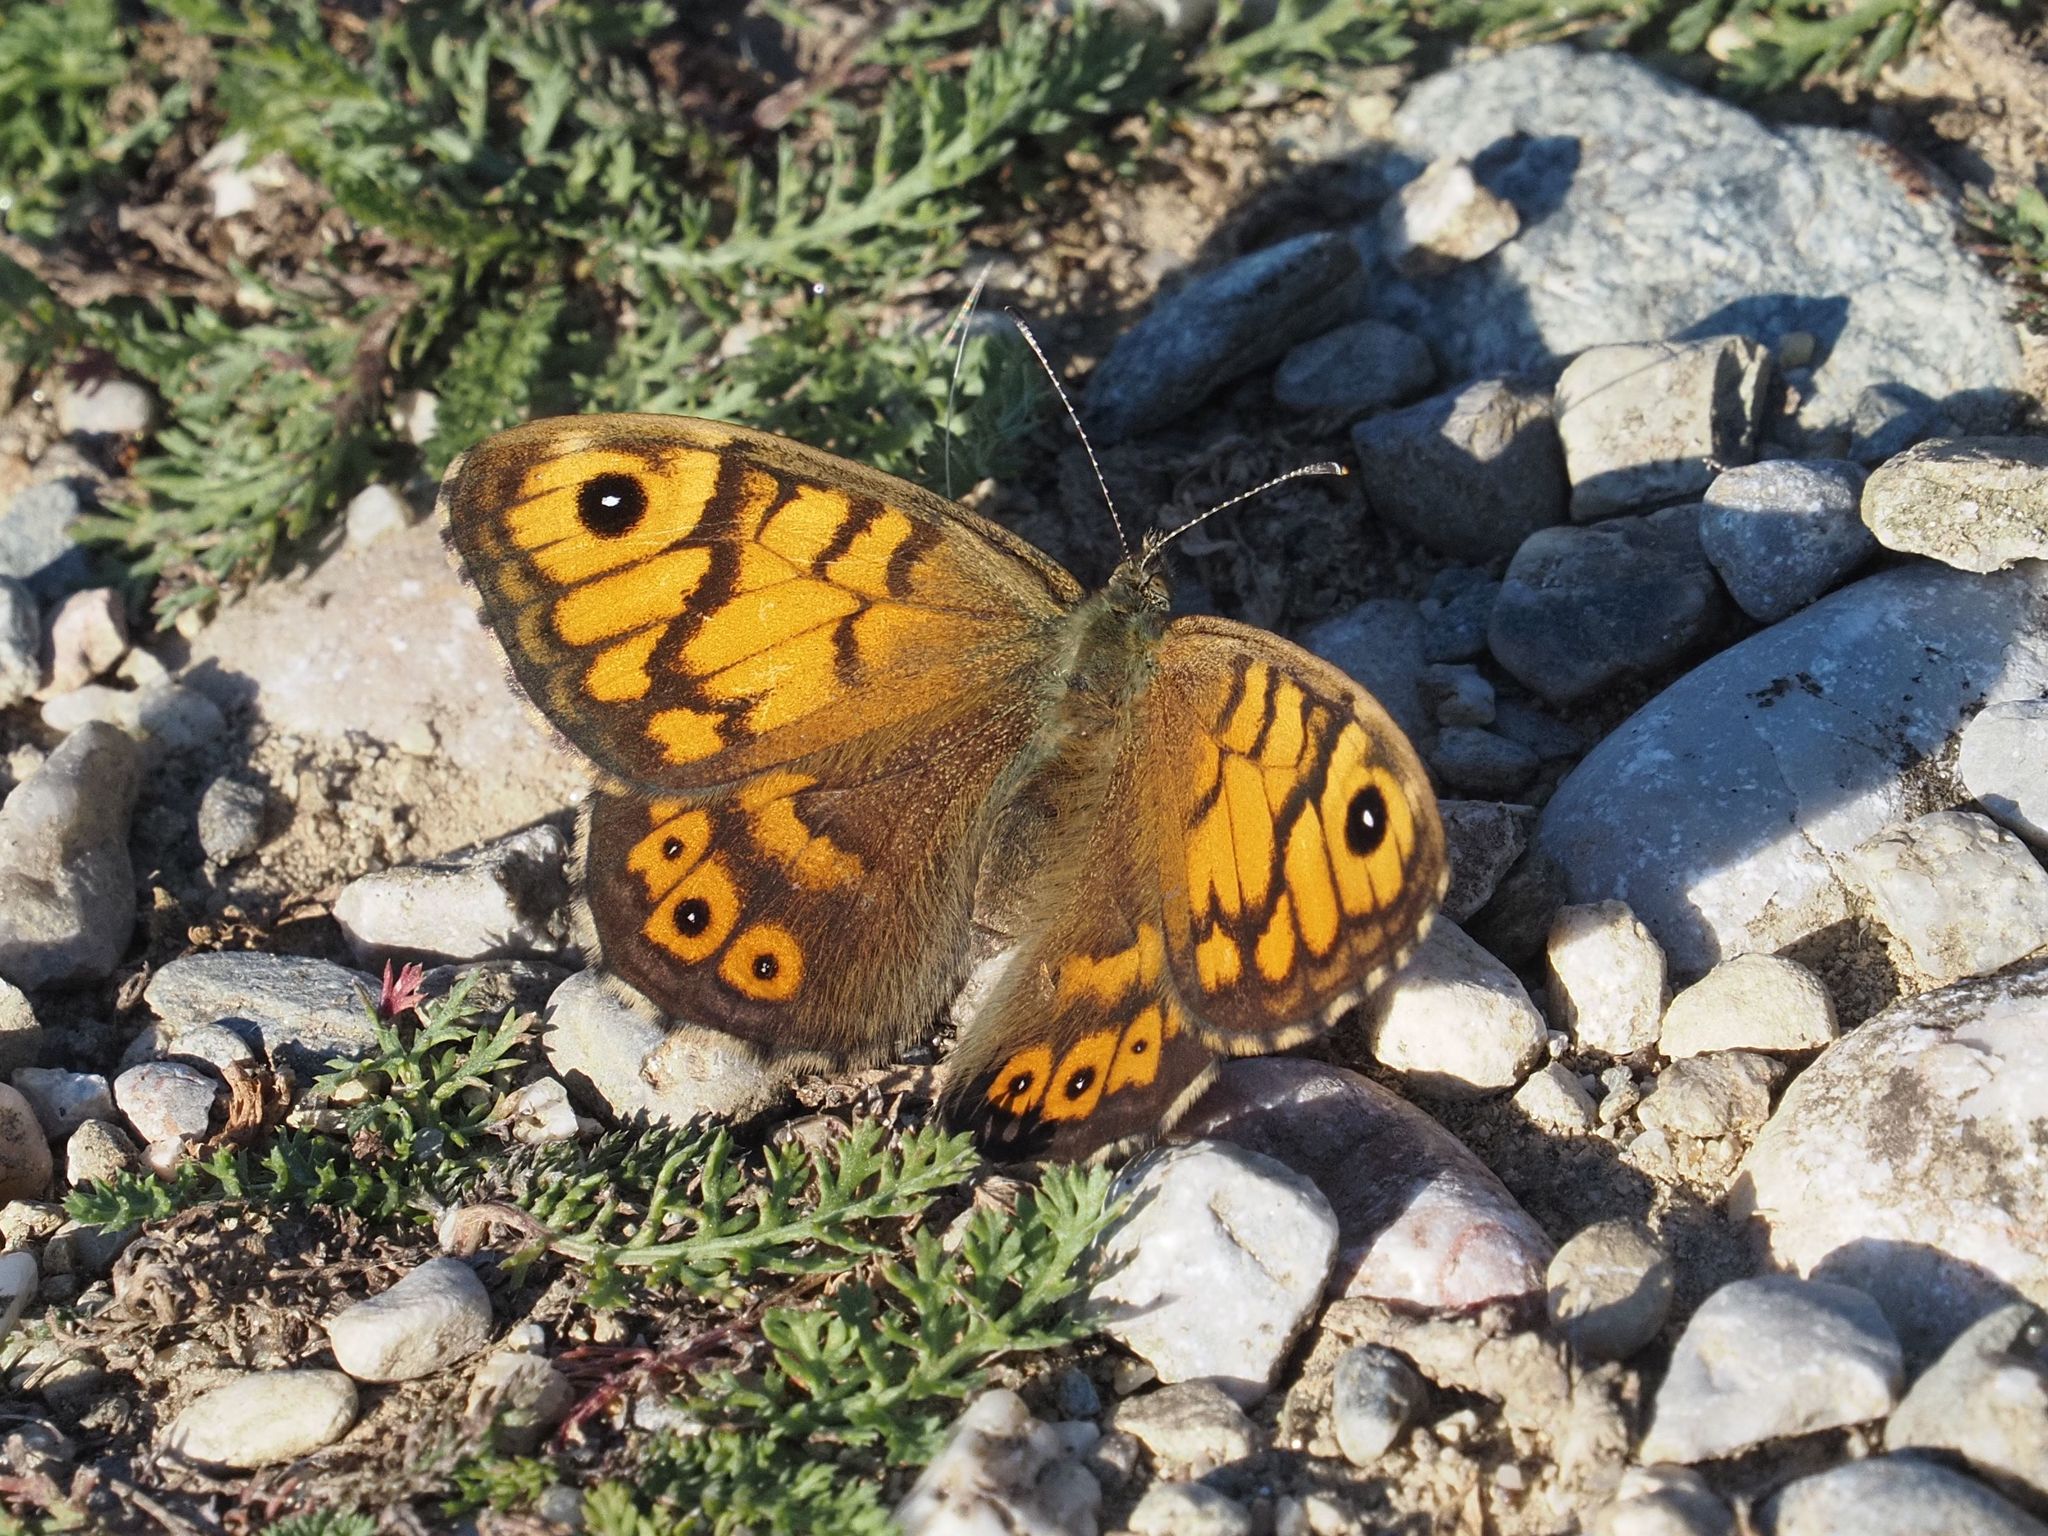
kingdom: Animalia
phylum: Arthropoda
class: Insecta
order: Lepidoptera
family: Nymphalidae
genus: Pararge
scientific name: Pararge Lasiommata megera
